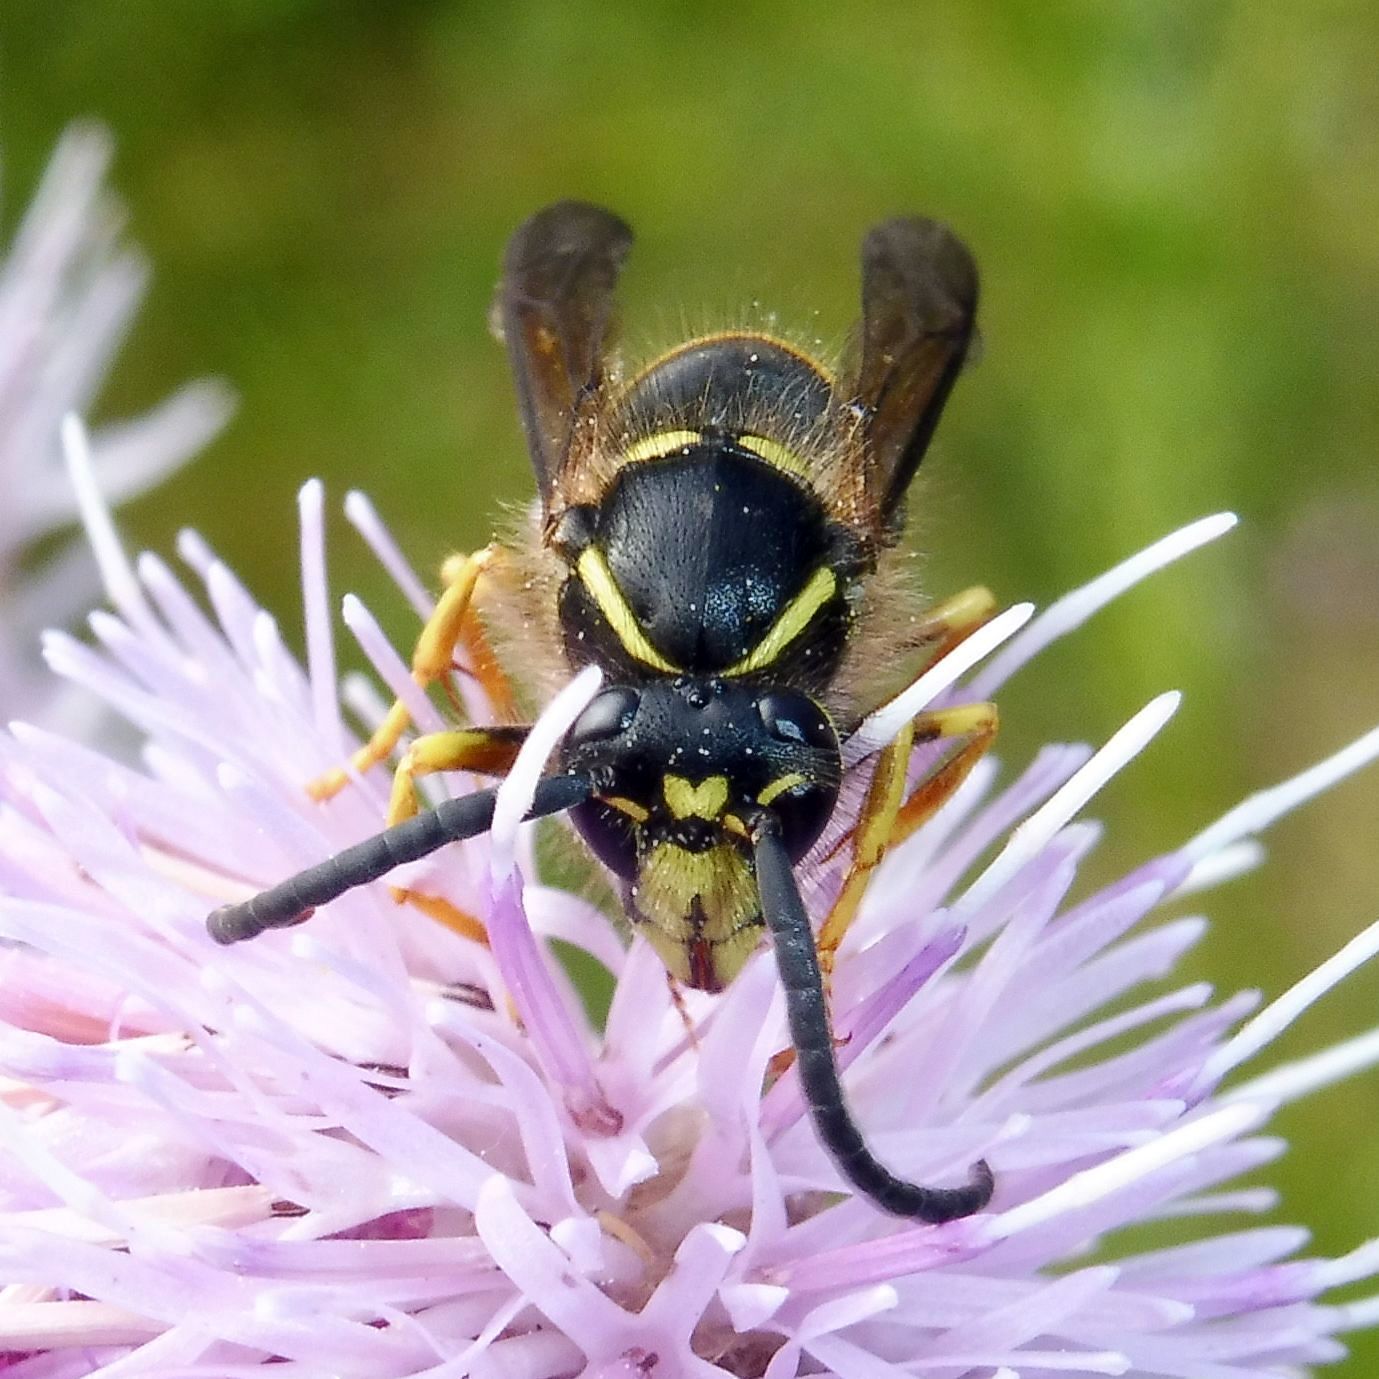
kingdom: Animalia
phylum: Arthropoda
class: Insecta
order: Hymenoptera
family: Vespidae
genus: Dolichovespula
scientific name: Dolichovespula saxonica
